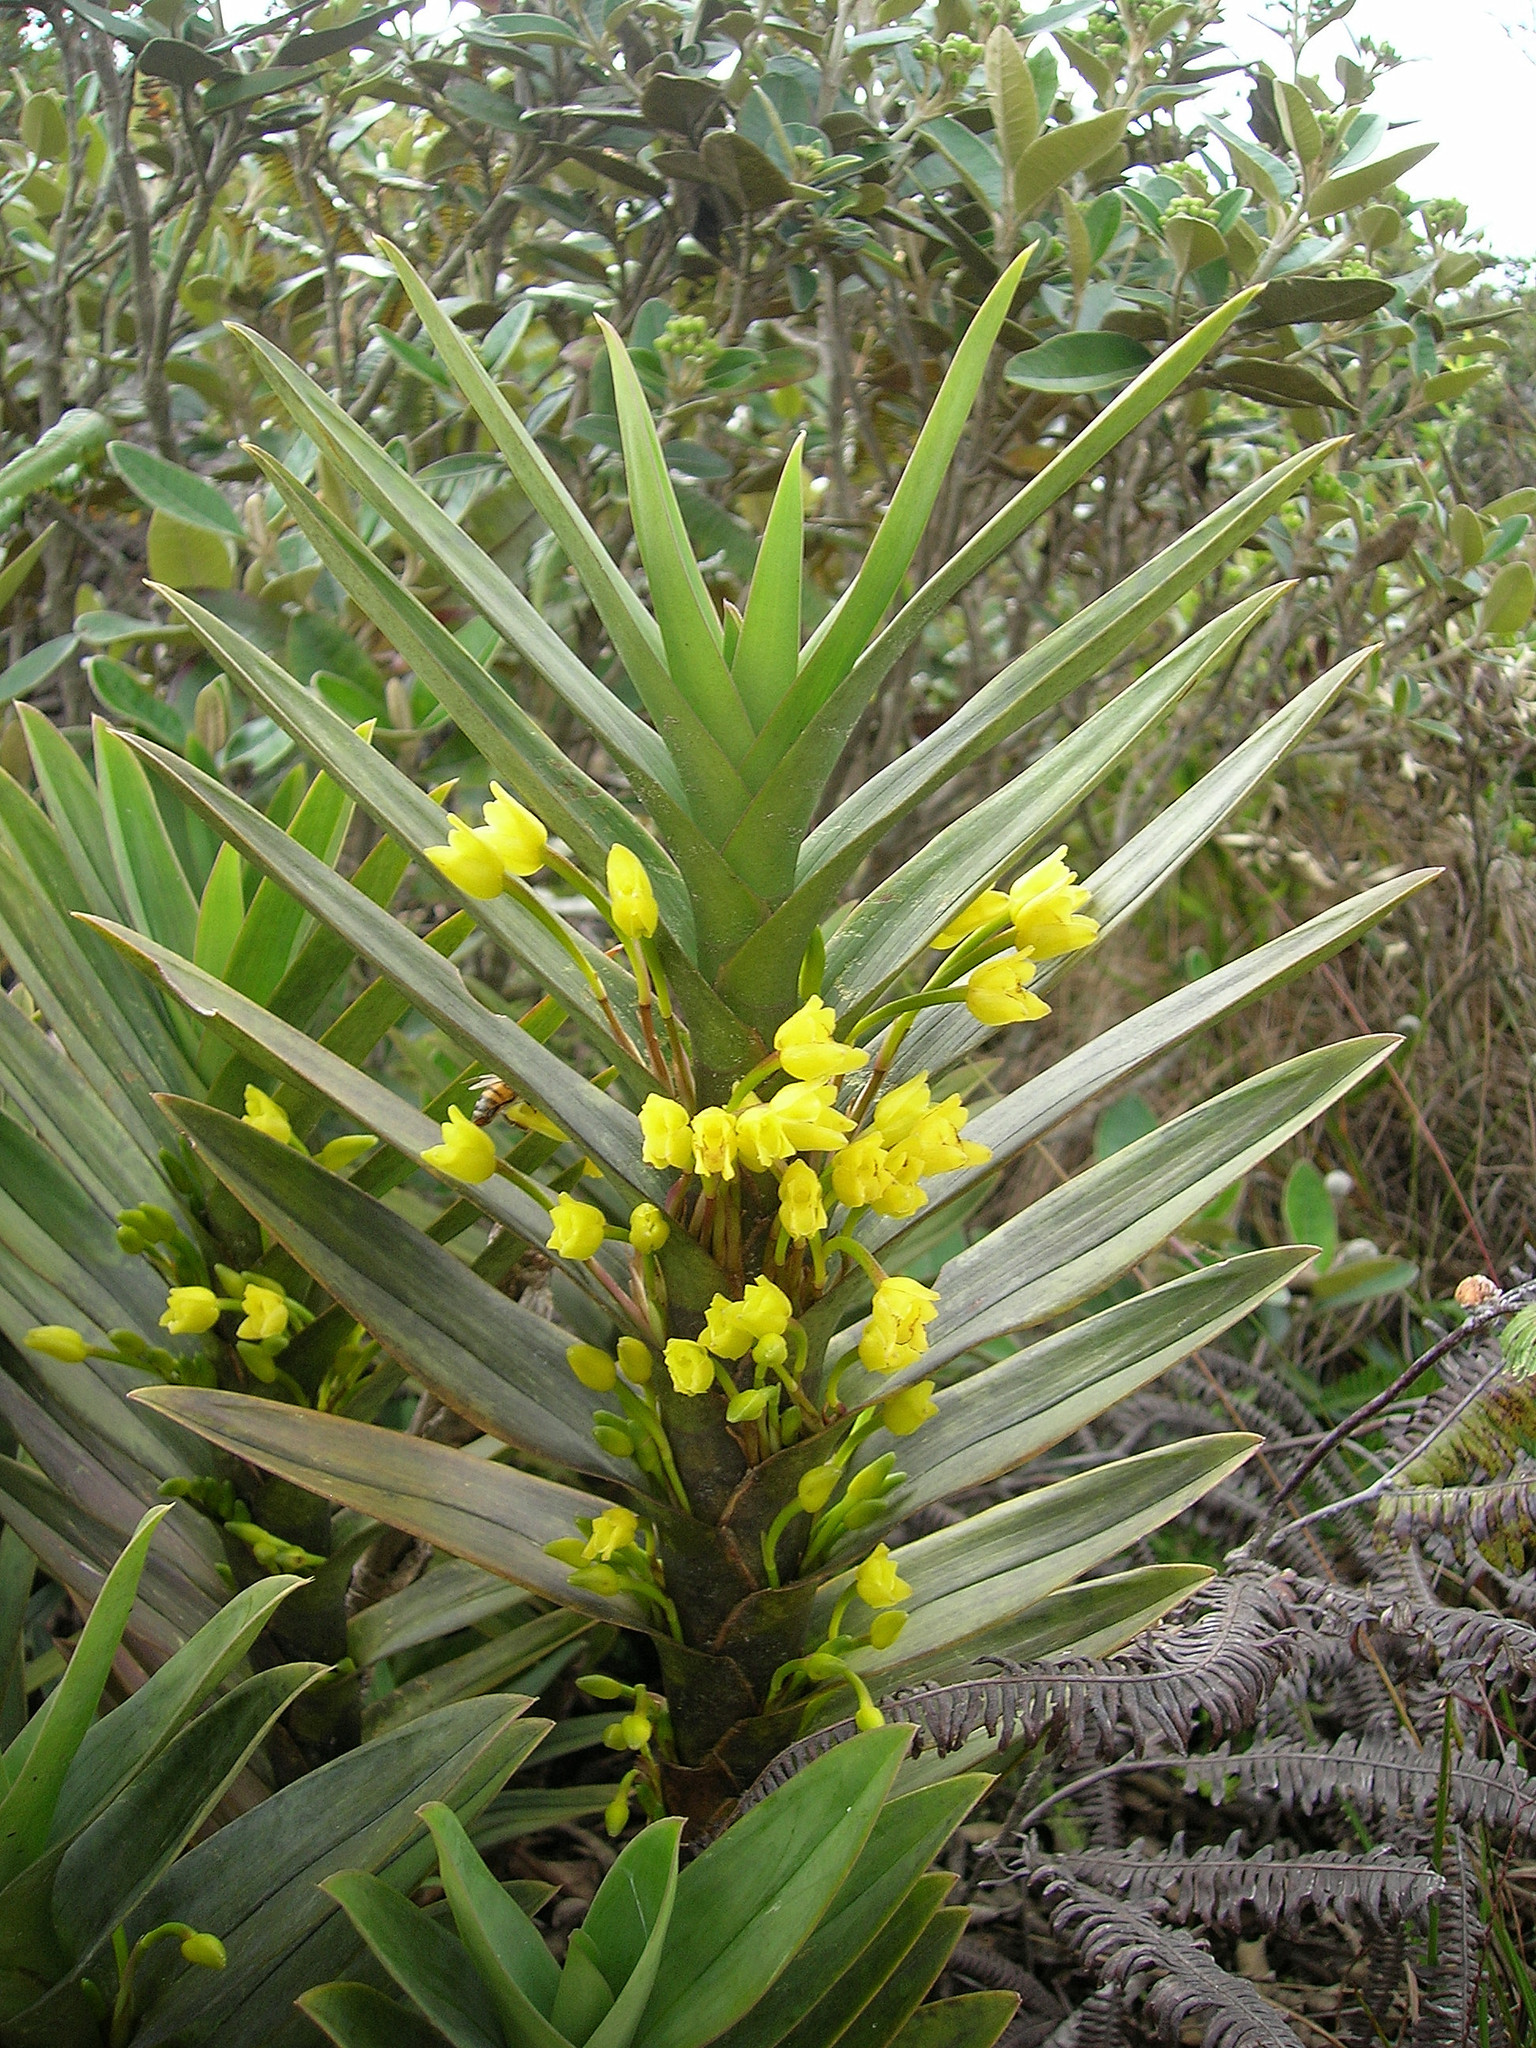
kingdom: Plantae
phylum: Tracheophyta
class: Liliopsida
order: Asparagales
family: Orchidaceae
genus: Maxillaria
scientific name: Maxillaria aurea
